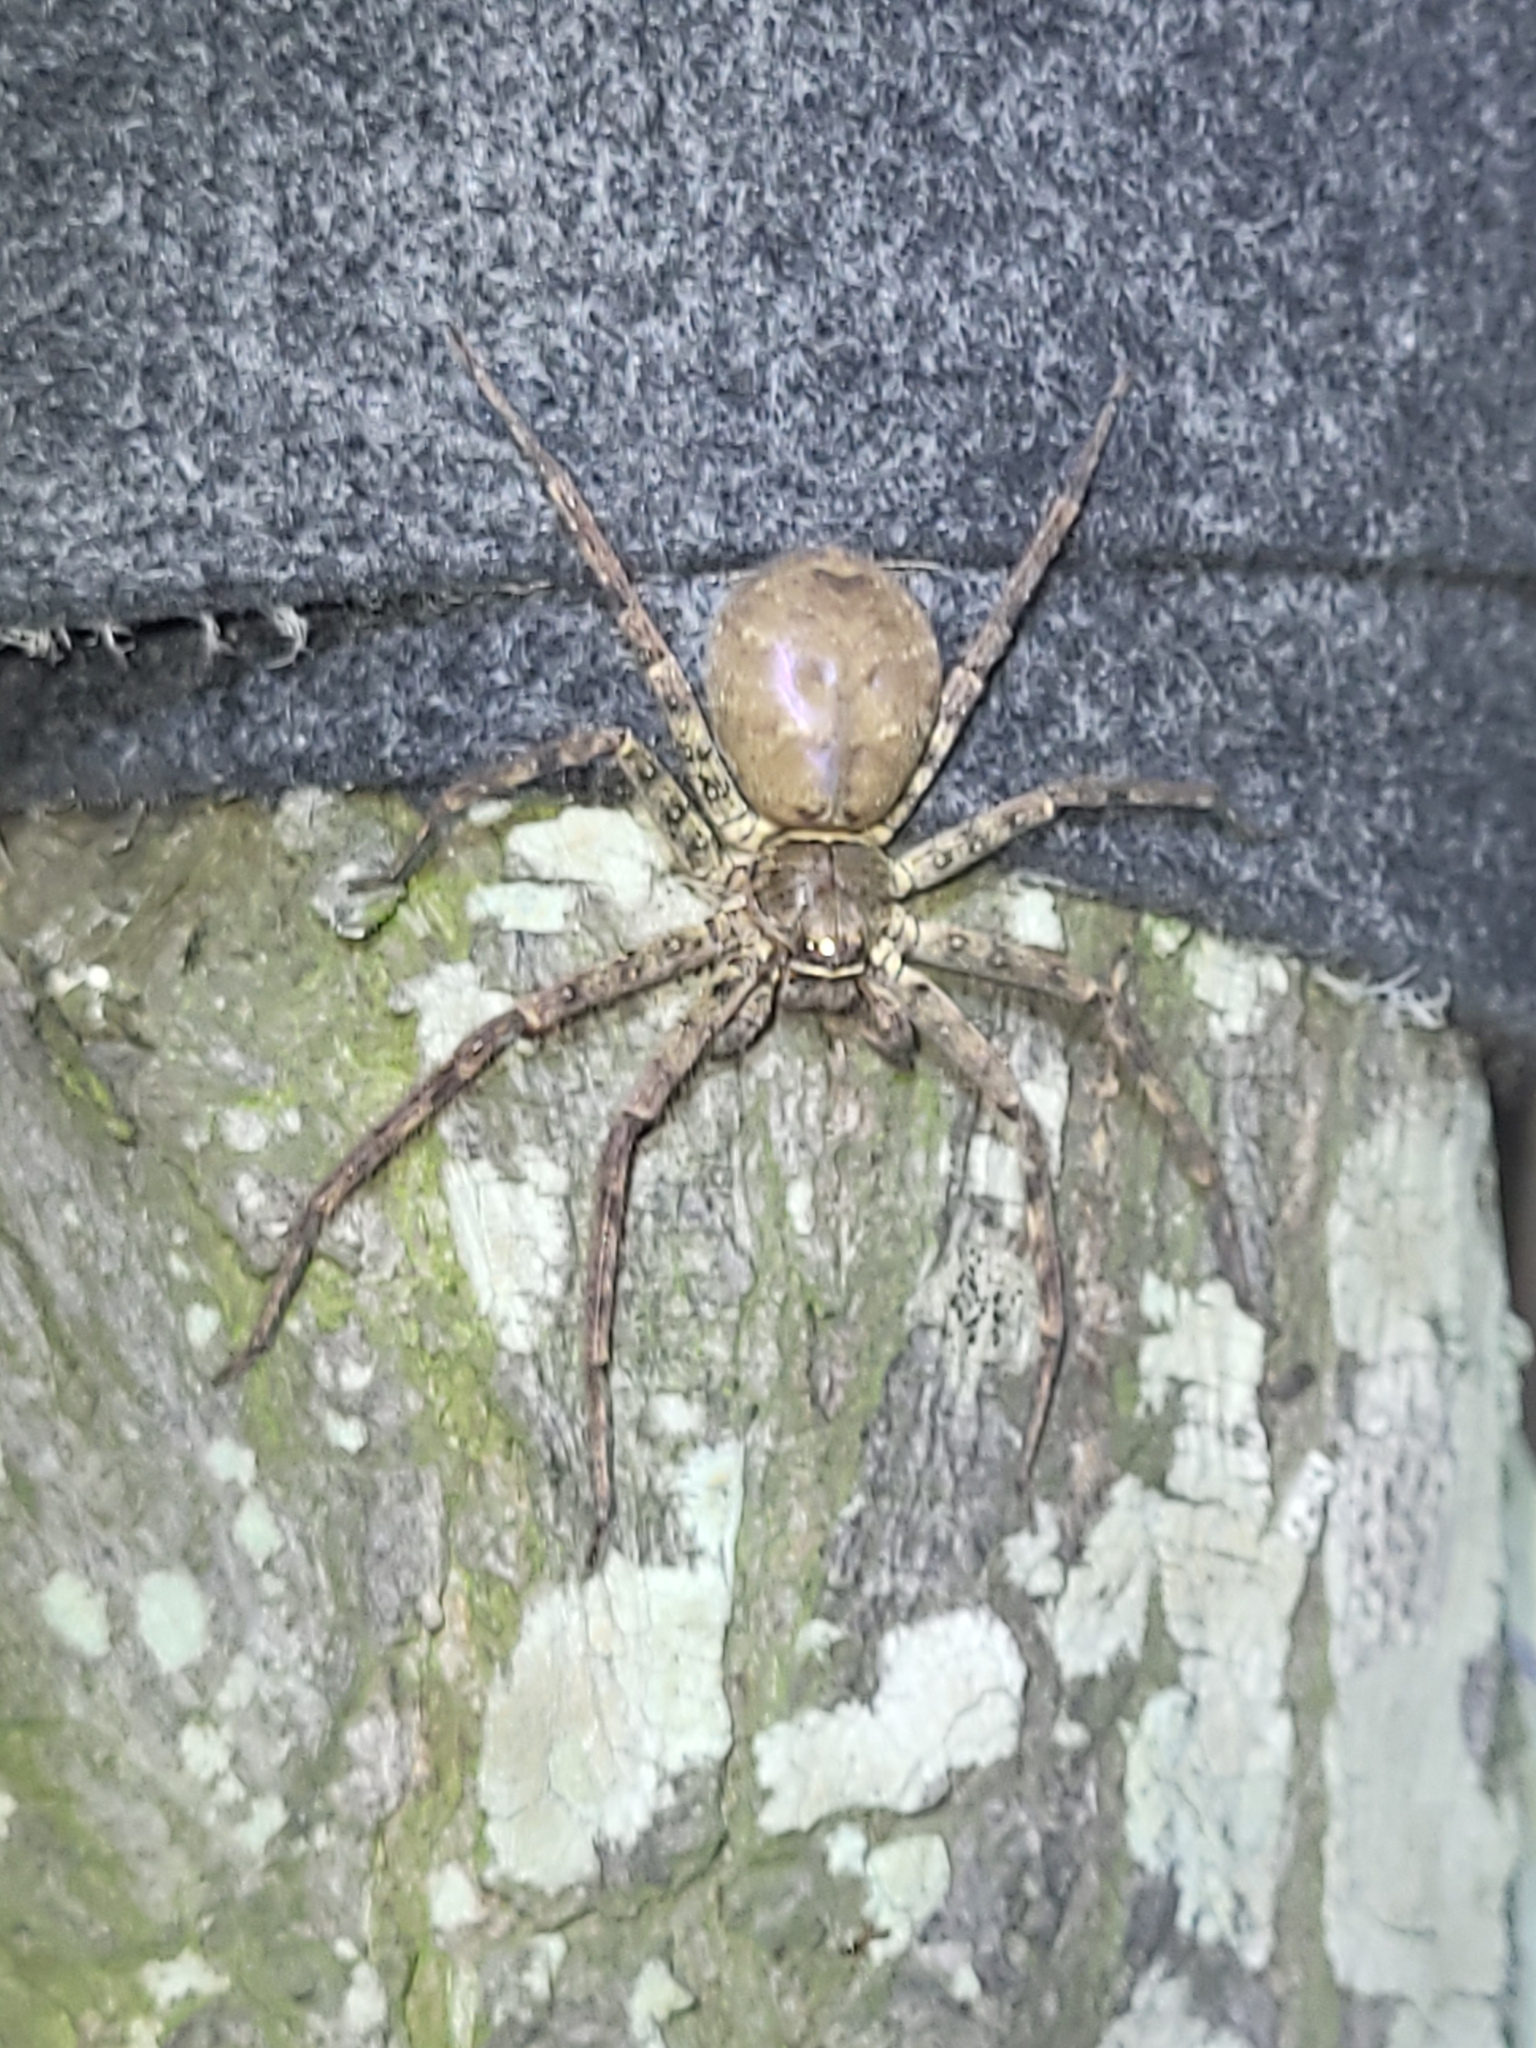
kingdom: Animalia
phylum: Arthropoda
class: Arachnida
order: Araneae
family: Sparassidae
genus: Heteropoda
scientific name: Heteropoda venatoria
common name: Huntsman spider
